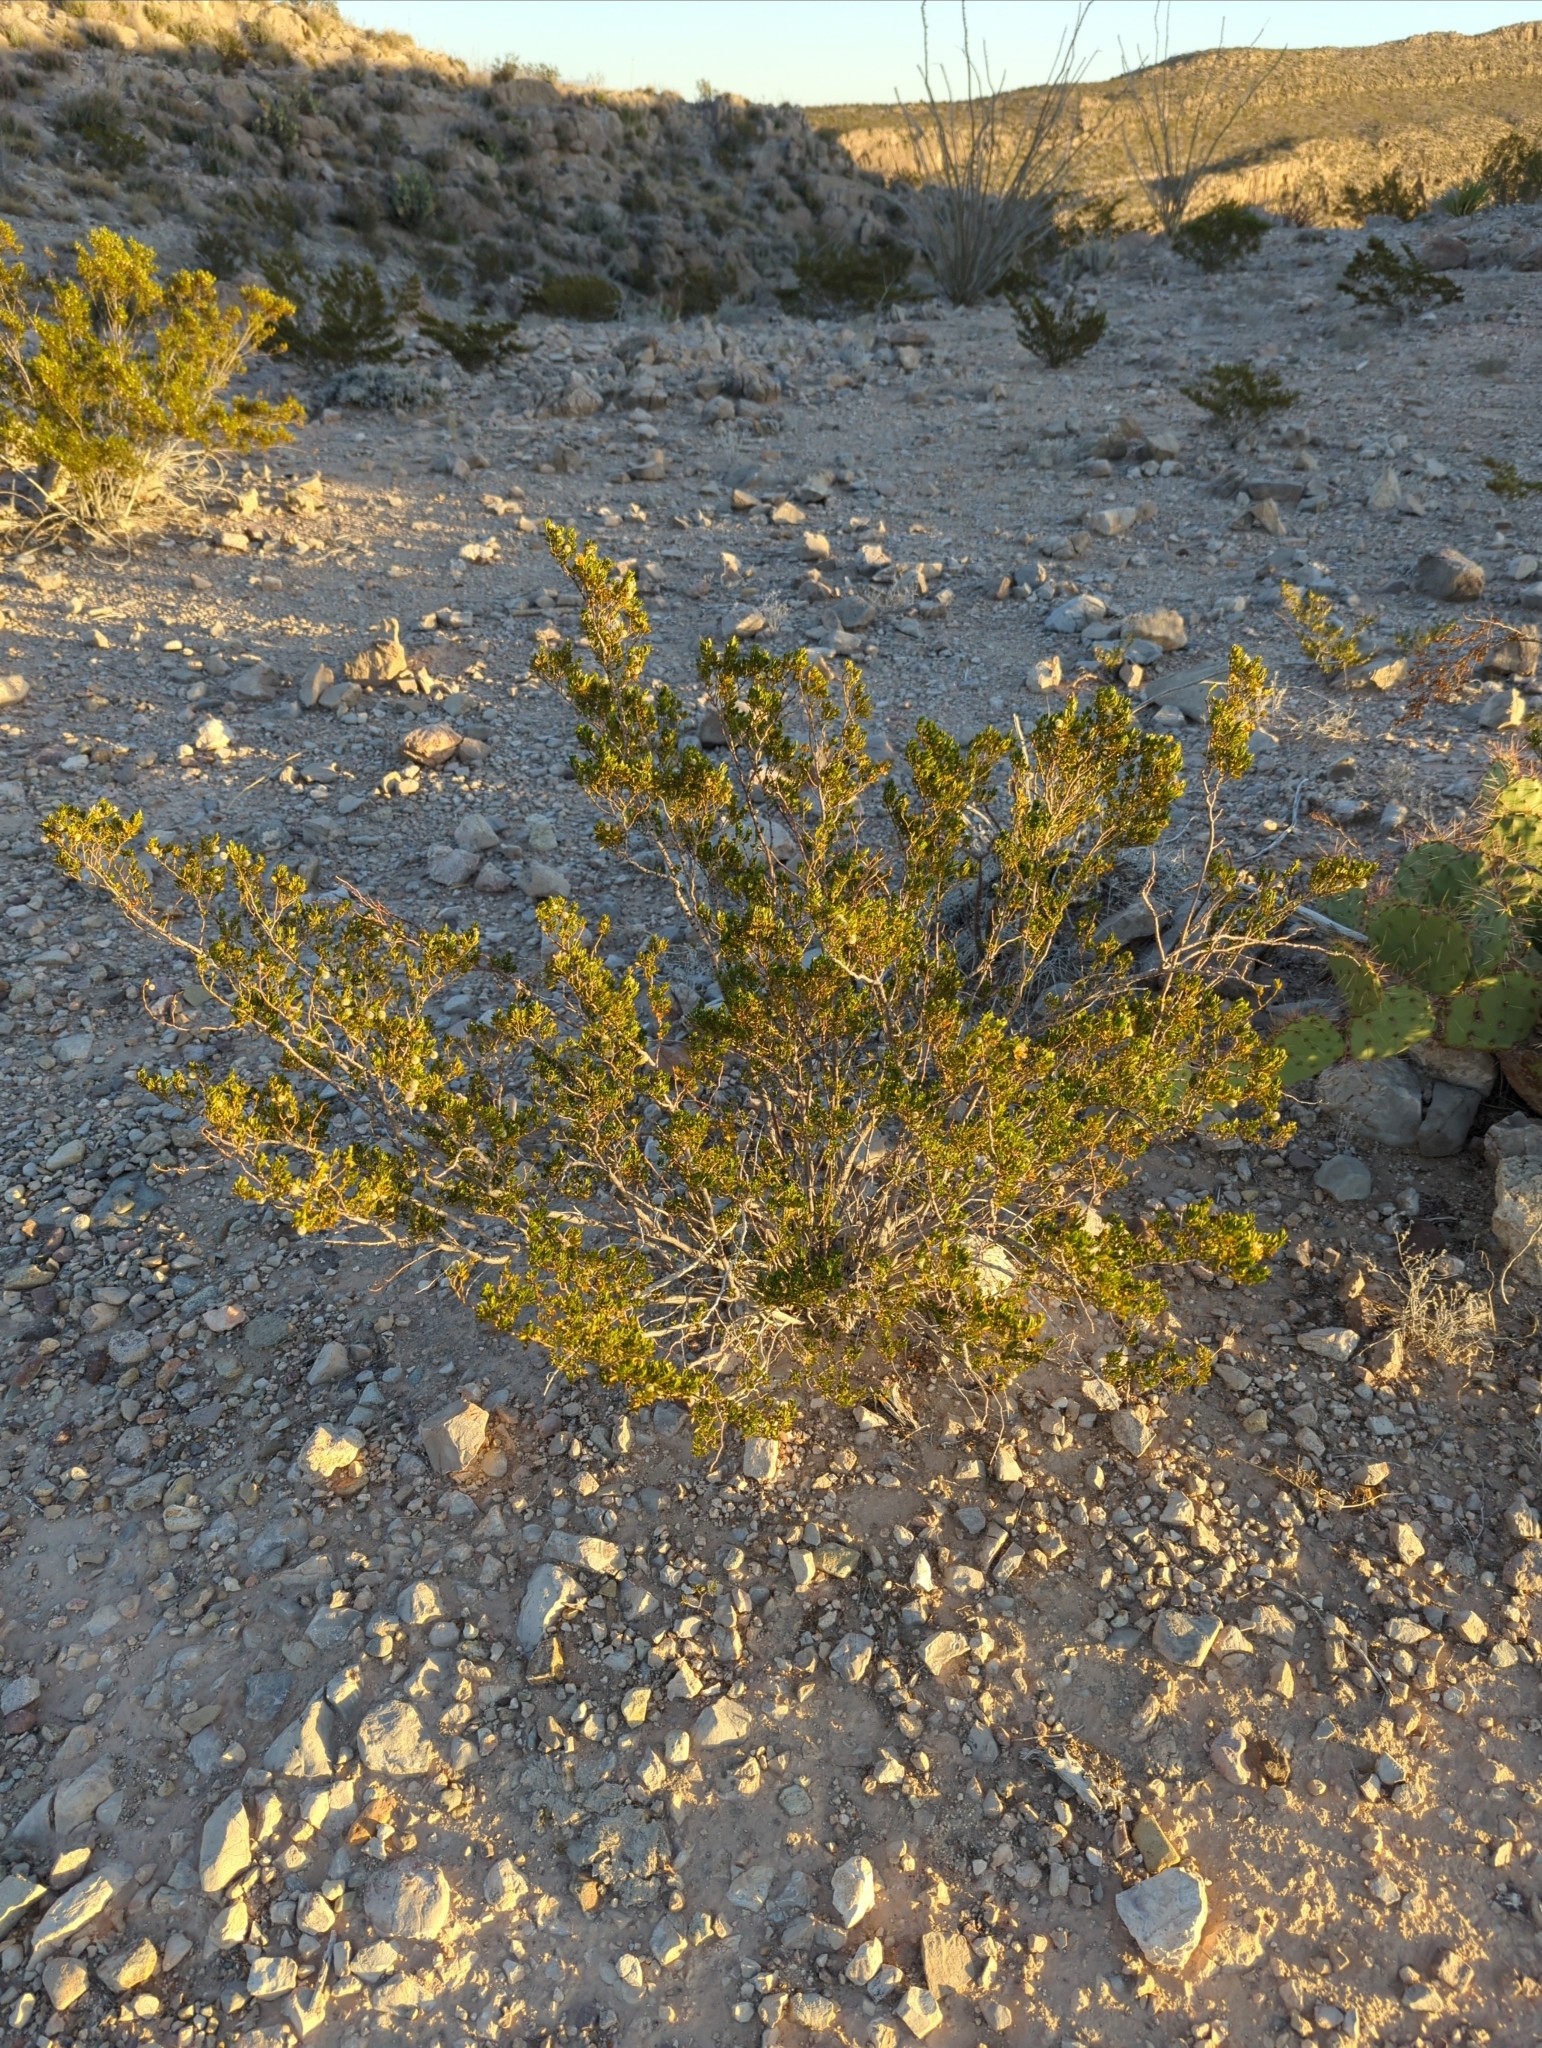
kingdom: Plantae
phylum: Tracheophyta
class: Magnoliopsida
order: Zygophyllales
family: Zygophyllaceae
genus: Larrea
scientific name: Larrea tridentata
